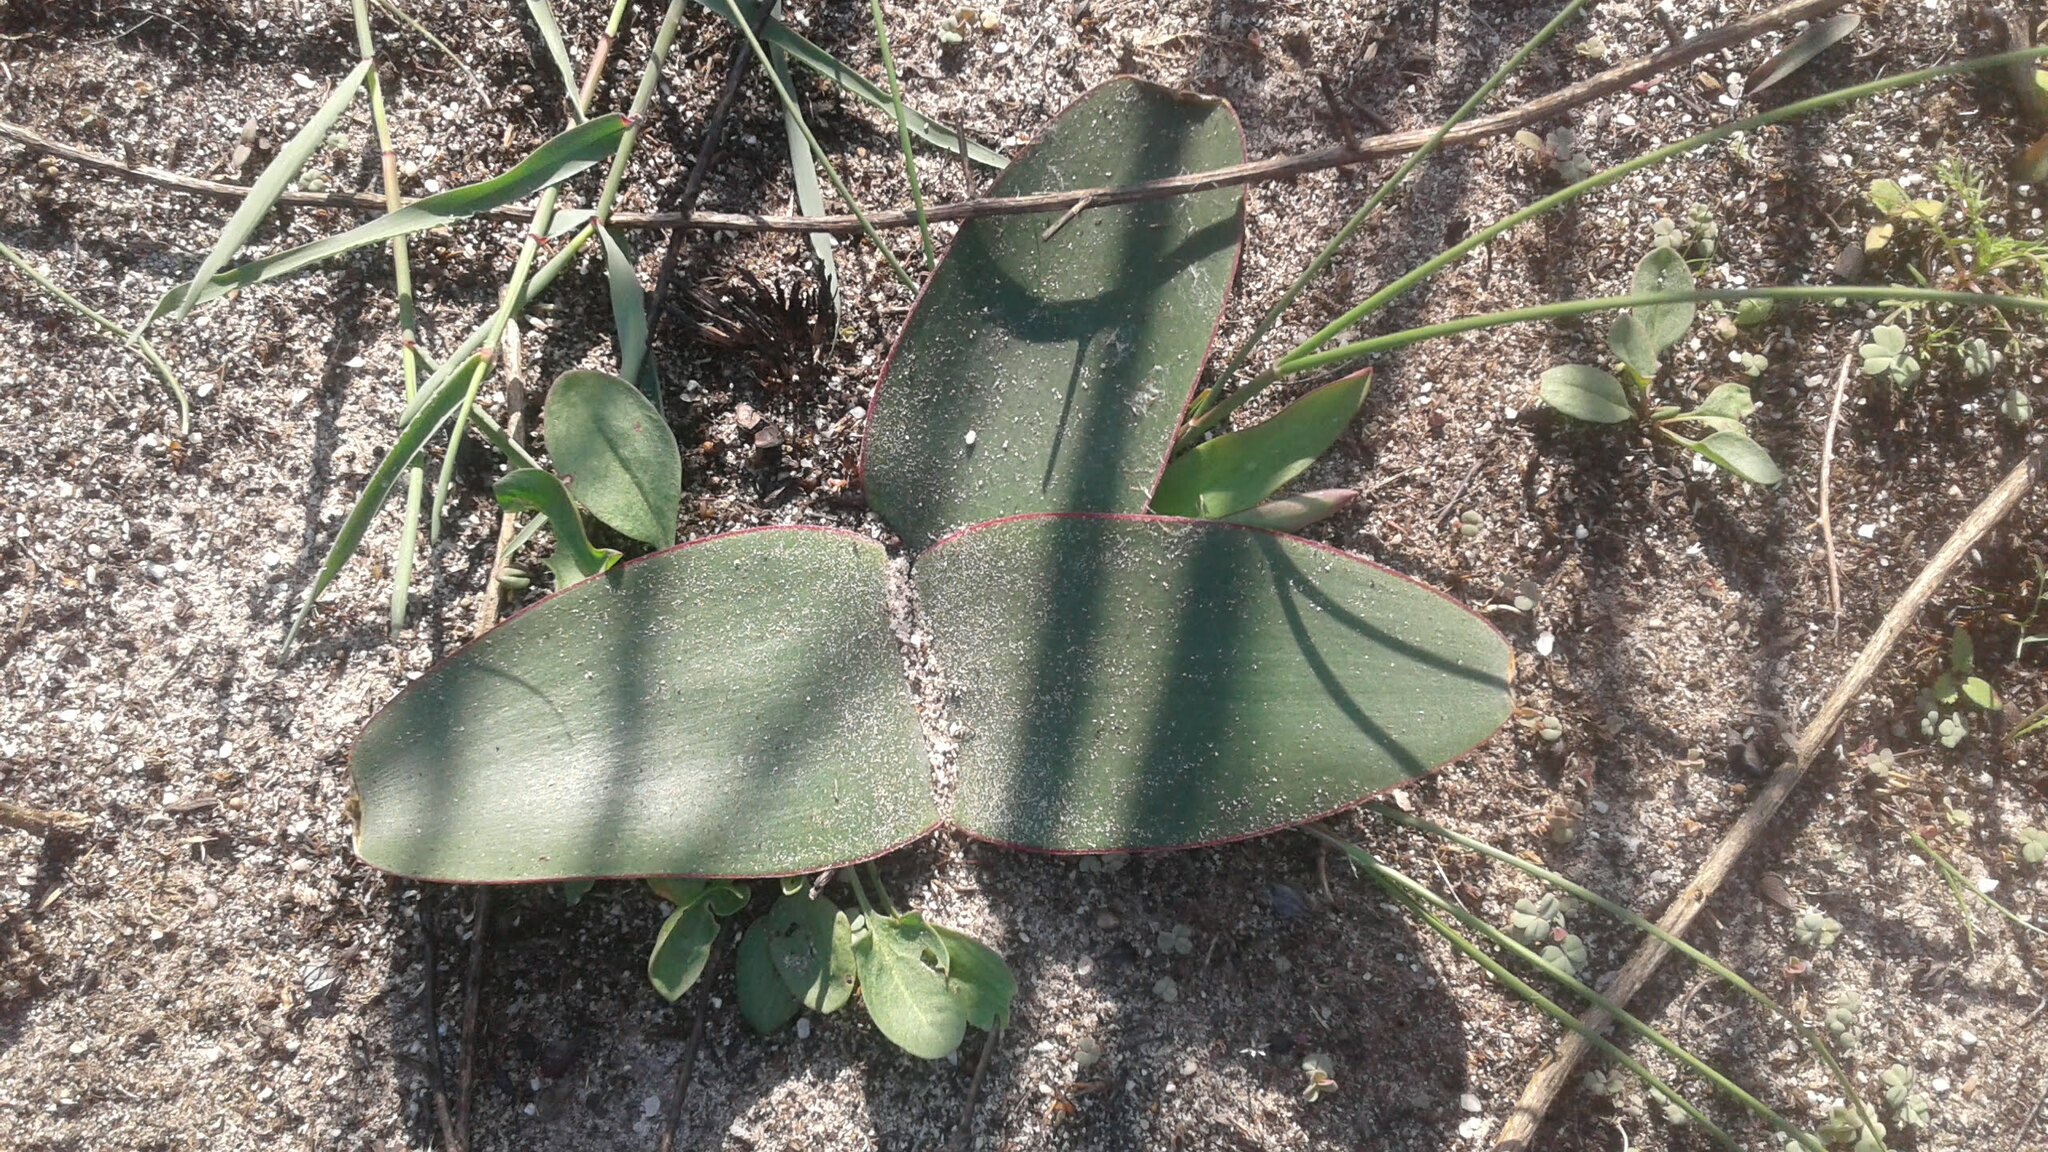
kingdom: Plantae
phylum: Tracheophyta
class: Liliopsida
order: Asparagales
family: Amaryllidaceae
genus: Brunsvigia
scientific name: Brunsvigia orientalis
